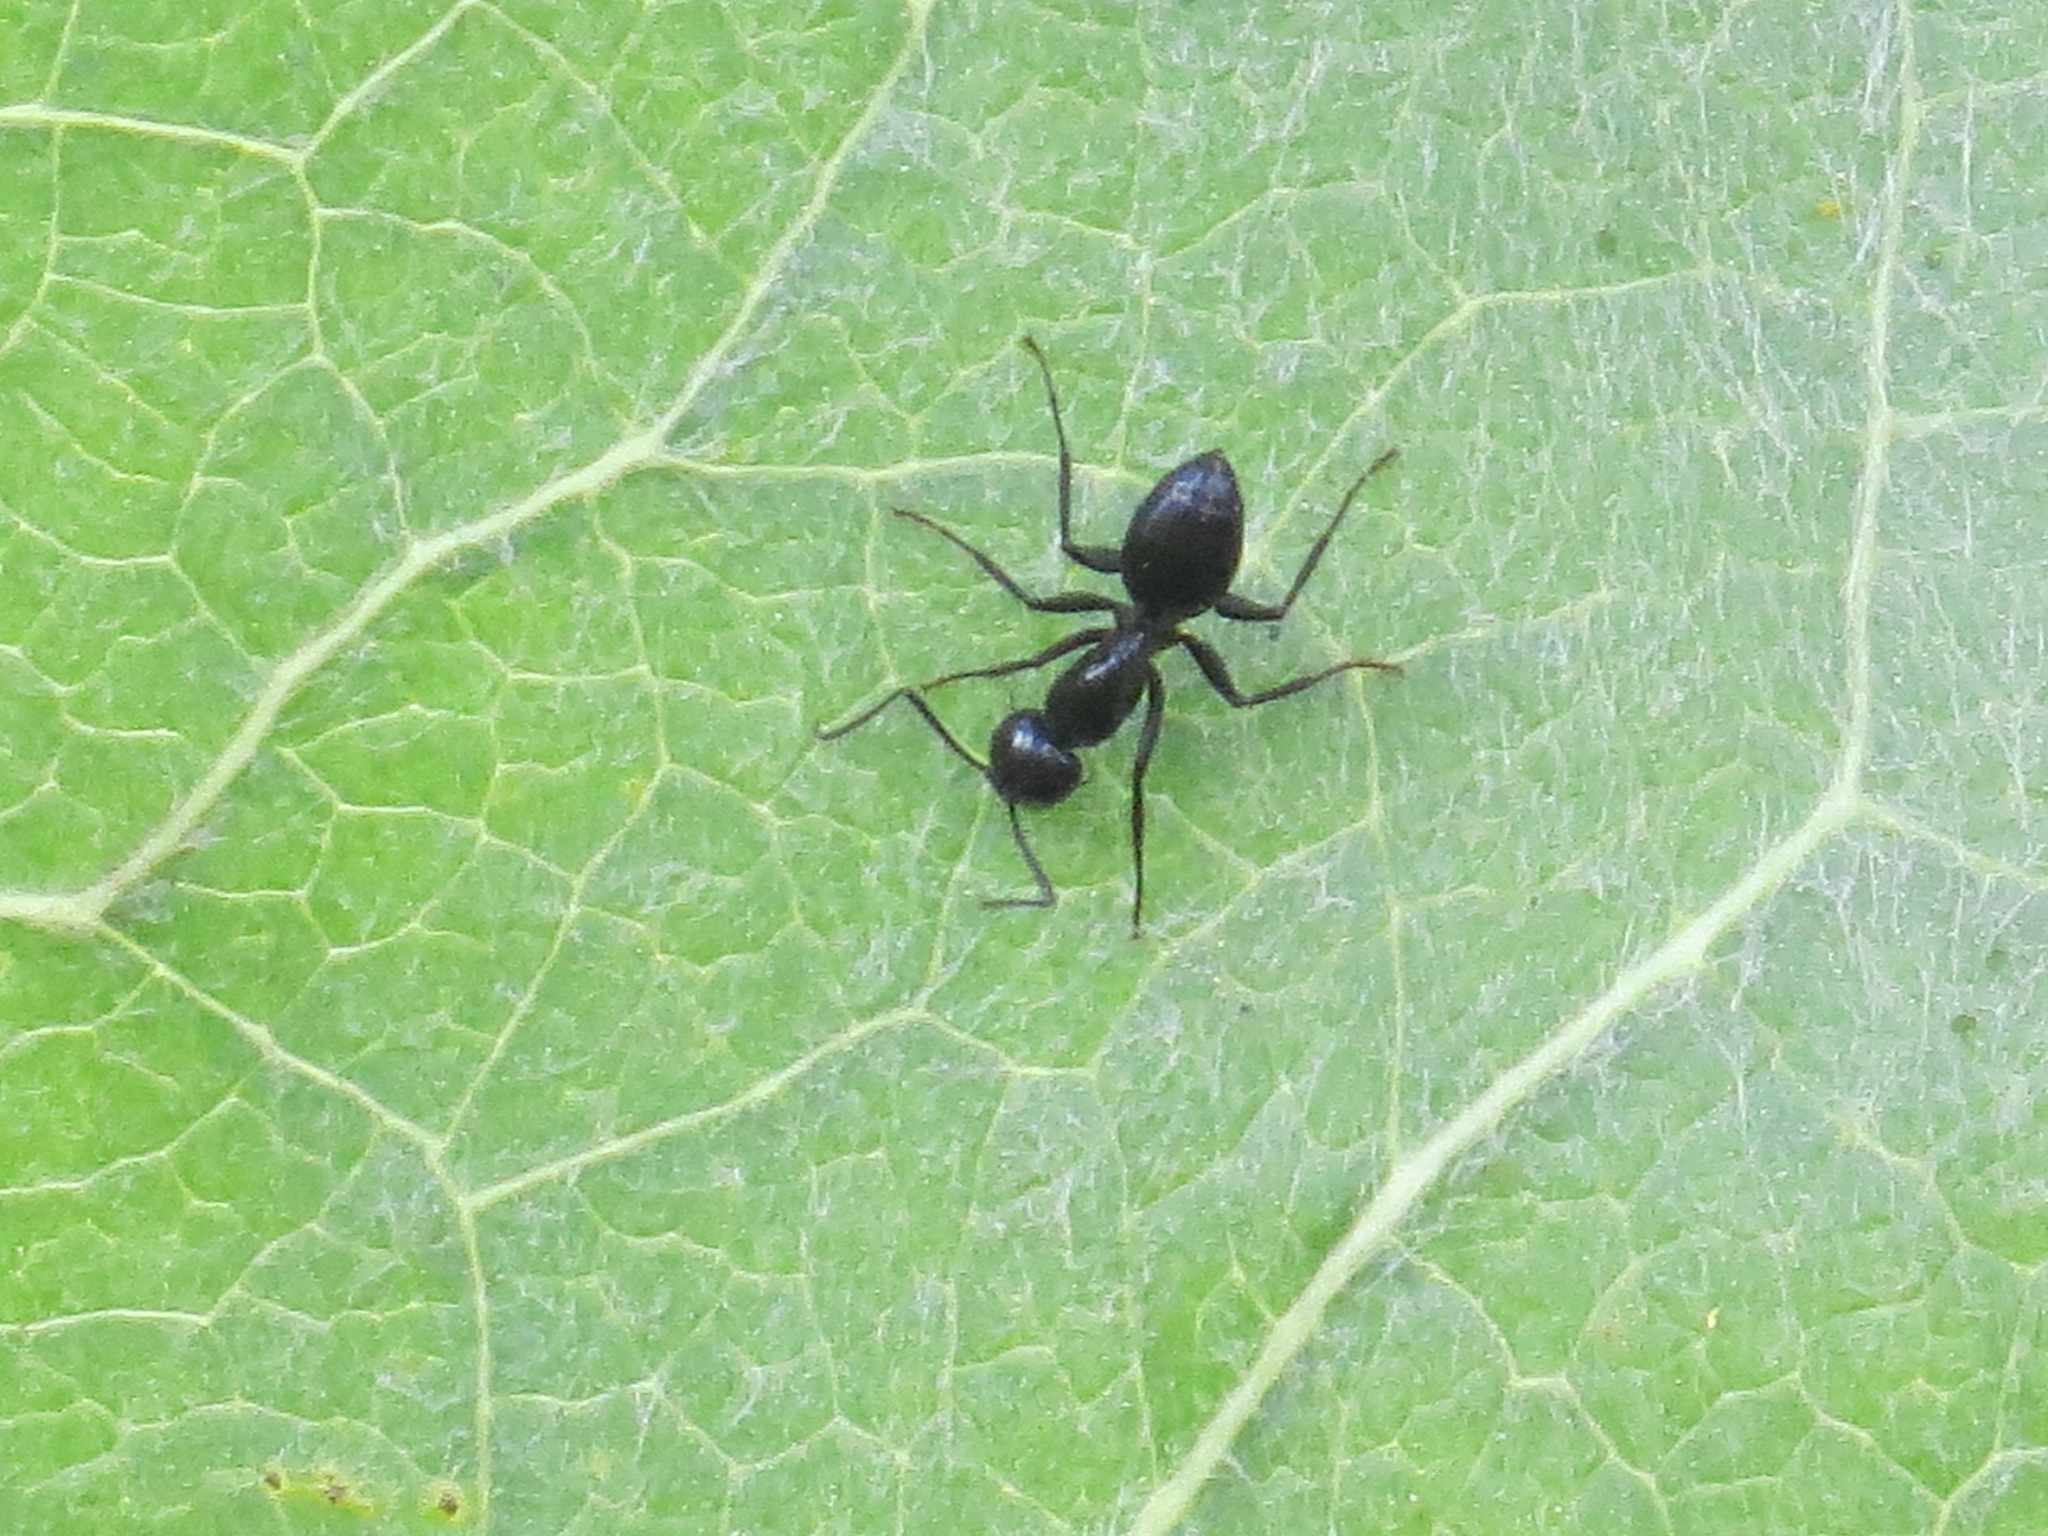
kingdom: Animalia
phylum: Arthropoda
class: Insecta
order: Hymenoptera
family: Formicidae
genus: Camponotus
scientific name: Camponotus
